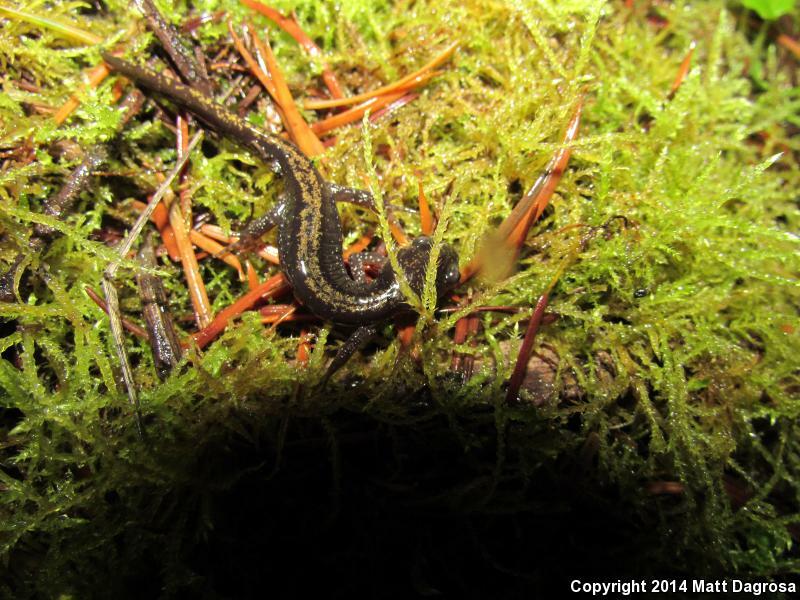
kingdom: Animalia
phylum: Chordata
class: Amphibia
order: Caudata
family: Ambystomatidae
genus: Ambystoma
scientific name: Ambystoma macrodactylum
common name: Long-toed salamander
